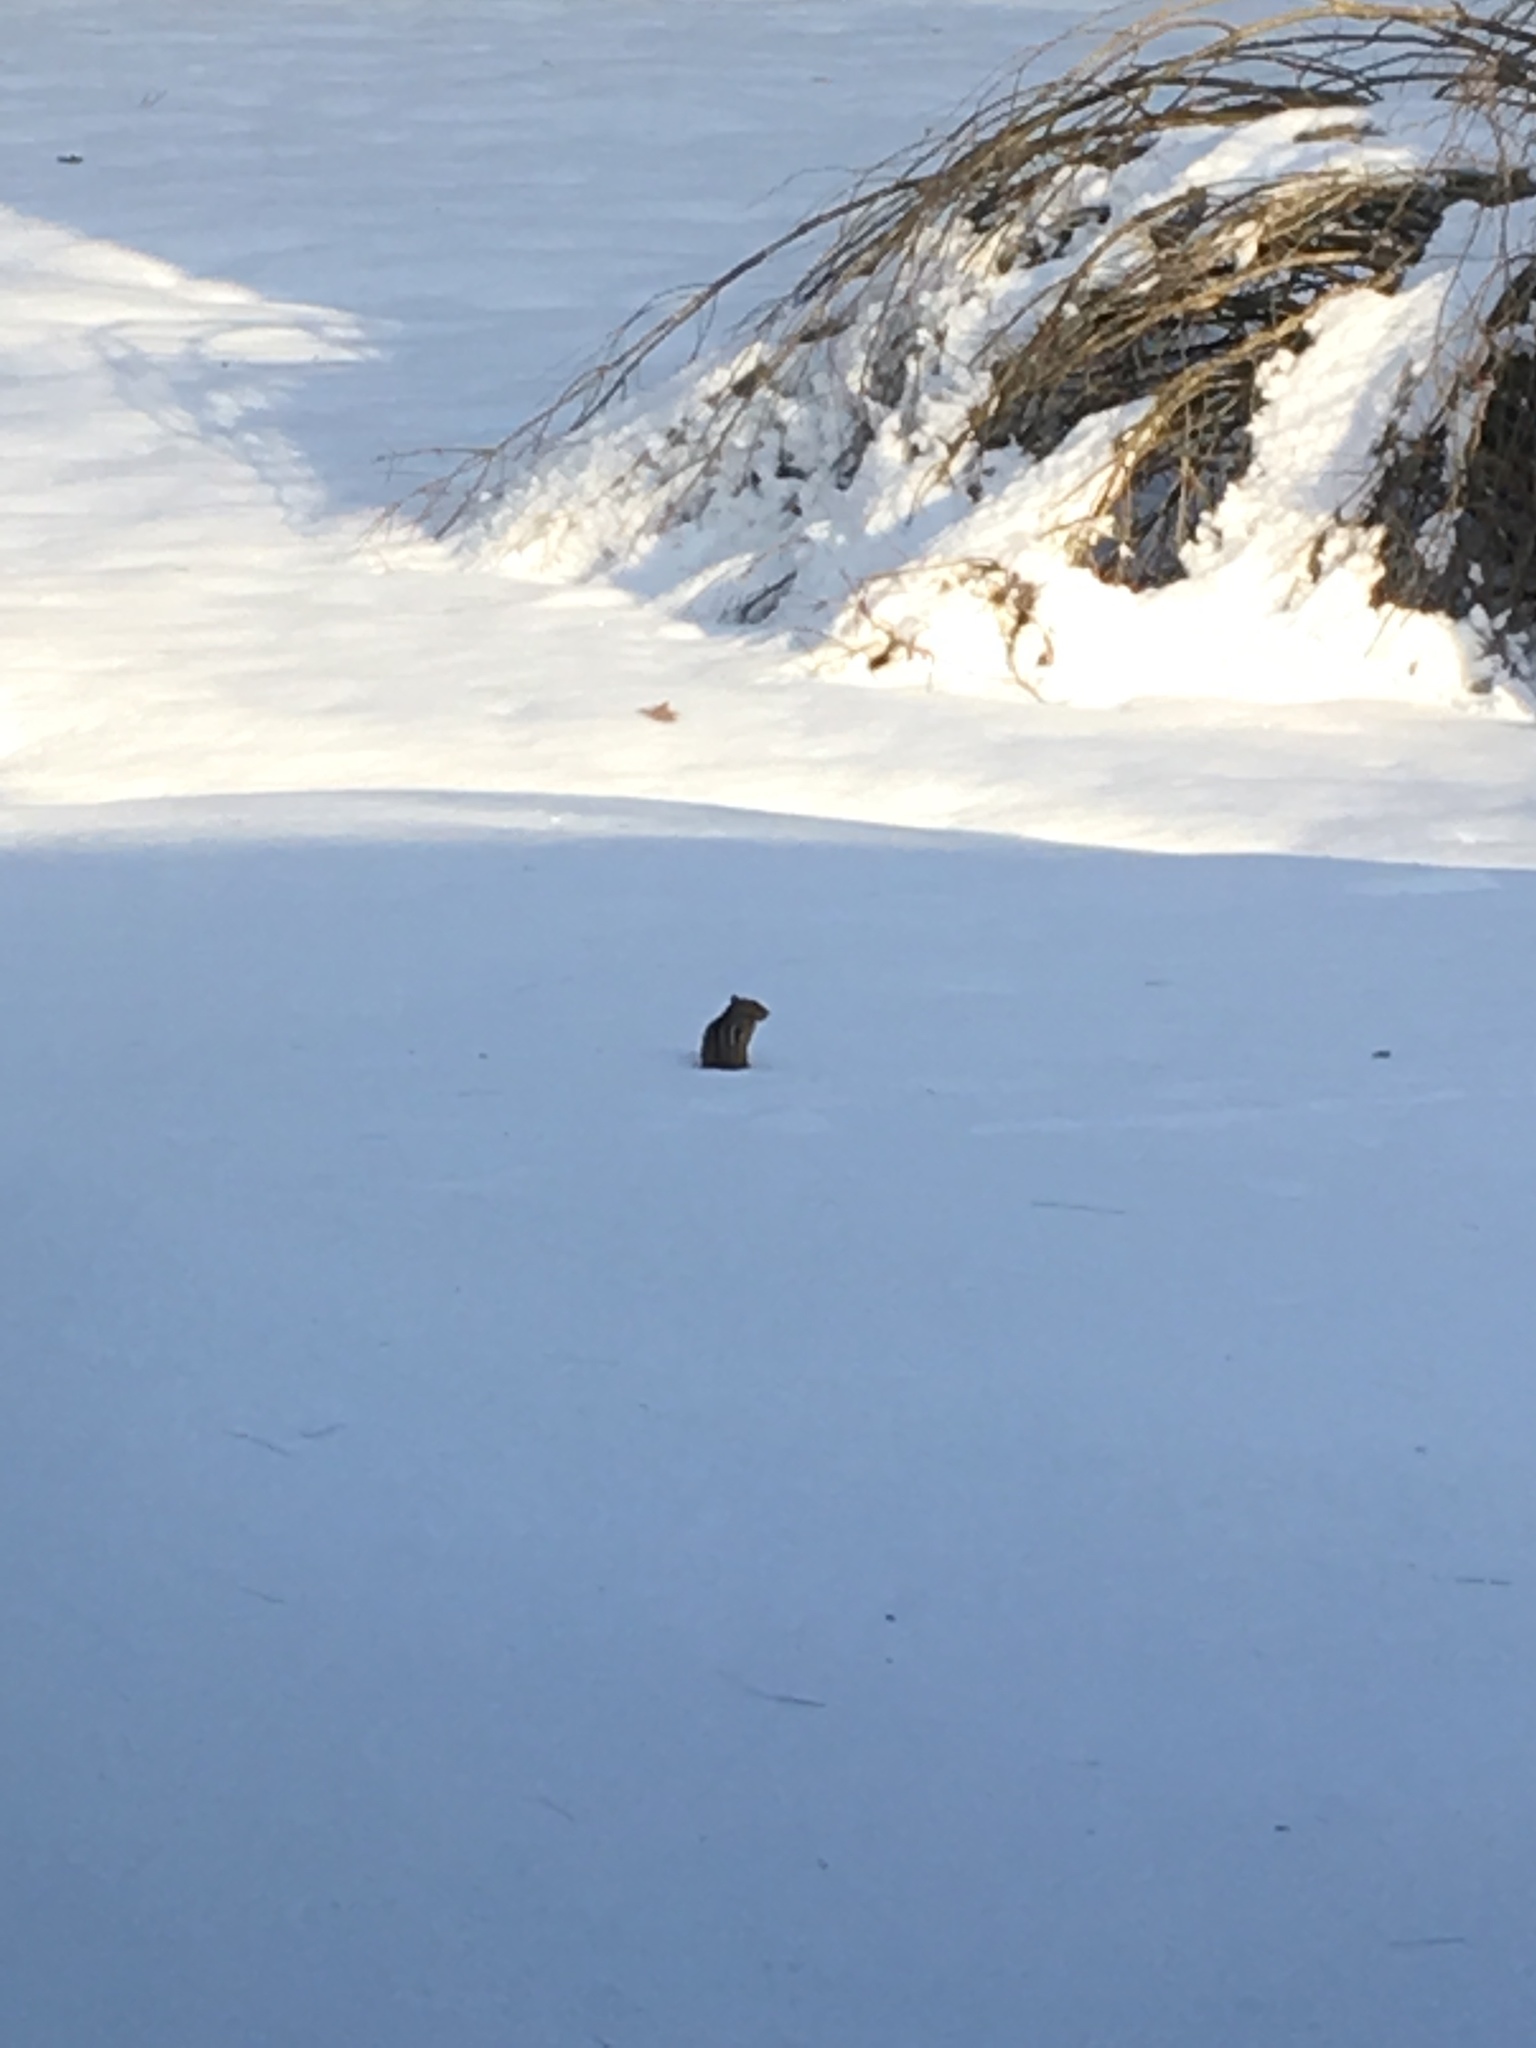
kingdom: Animalia
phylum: Chordata
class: Mammalia
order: Rodentia
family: Sciuridae
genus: Tamias
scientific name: Tamias striatus
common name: Eastern chipmunk
